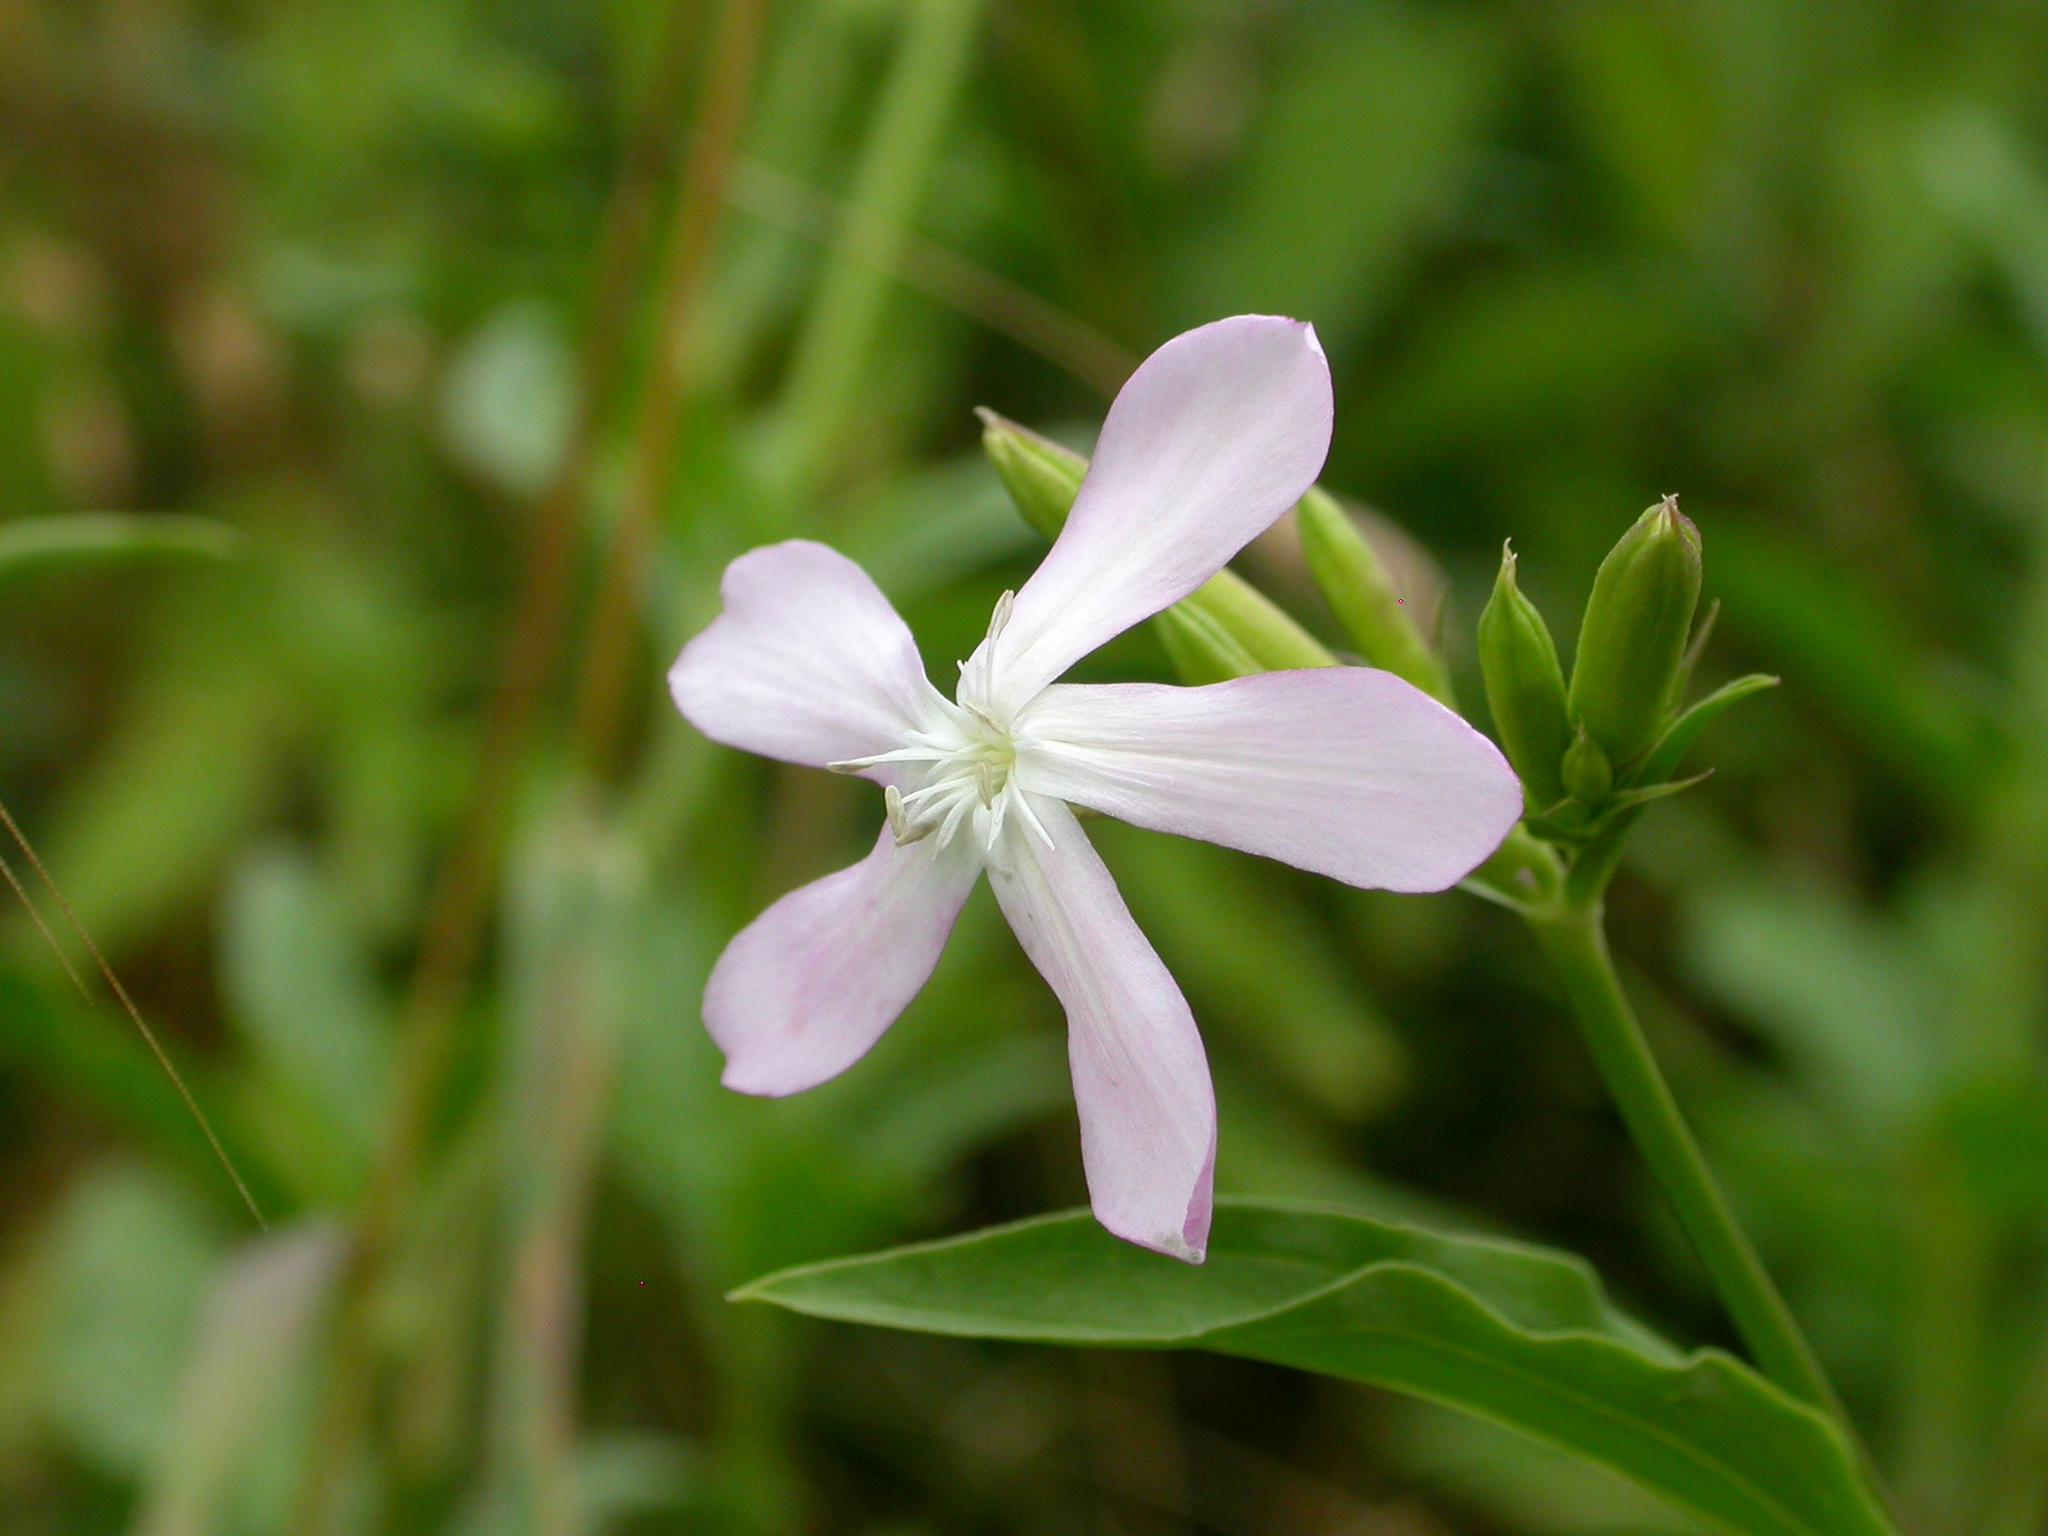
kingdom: Plantae
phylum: Tracheophyta
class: Magnoliopsida
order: Caryophyllales
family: Caryophyllaceae
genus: Saponaria
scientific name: Saponaria officinalis
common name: Soapwort
